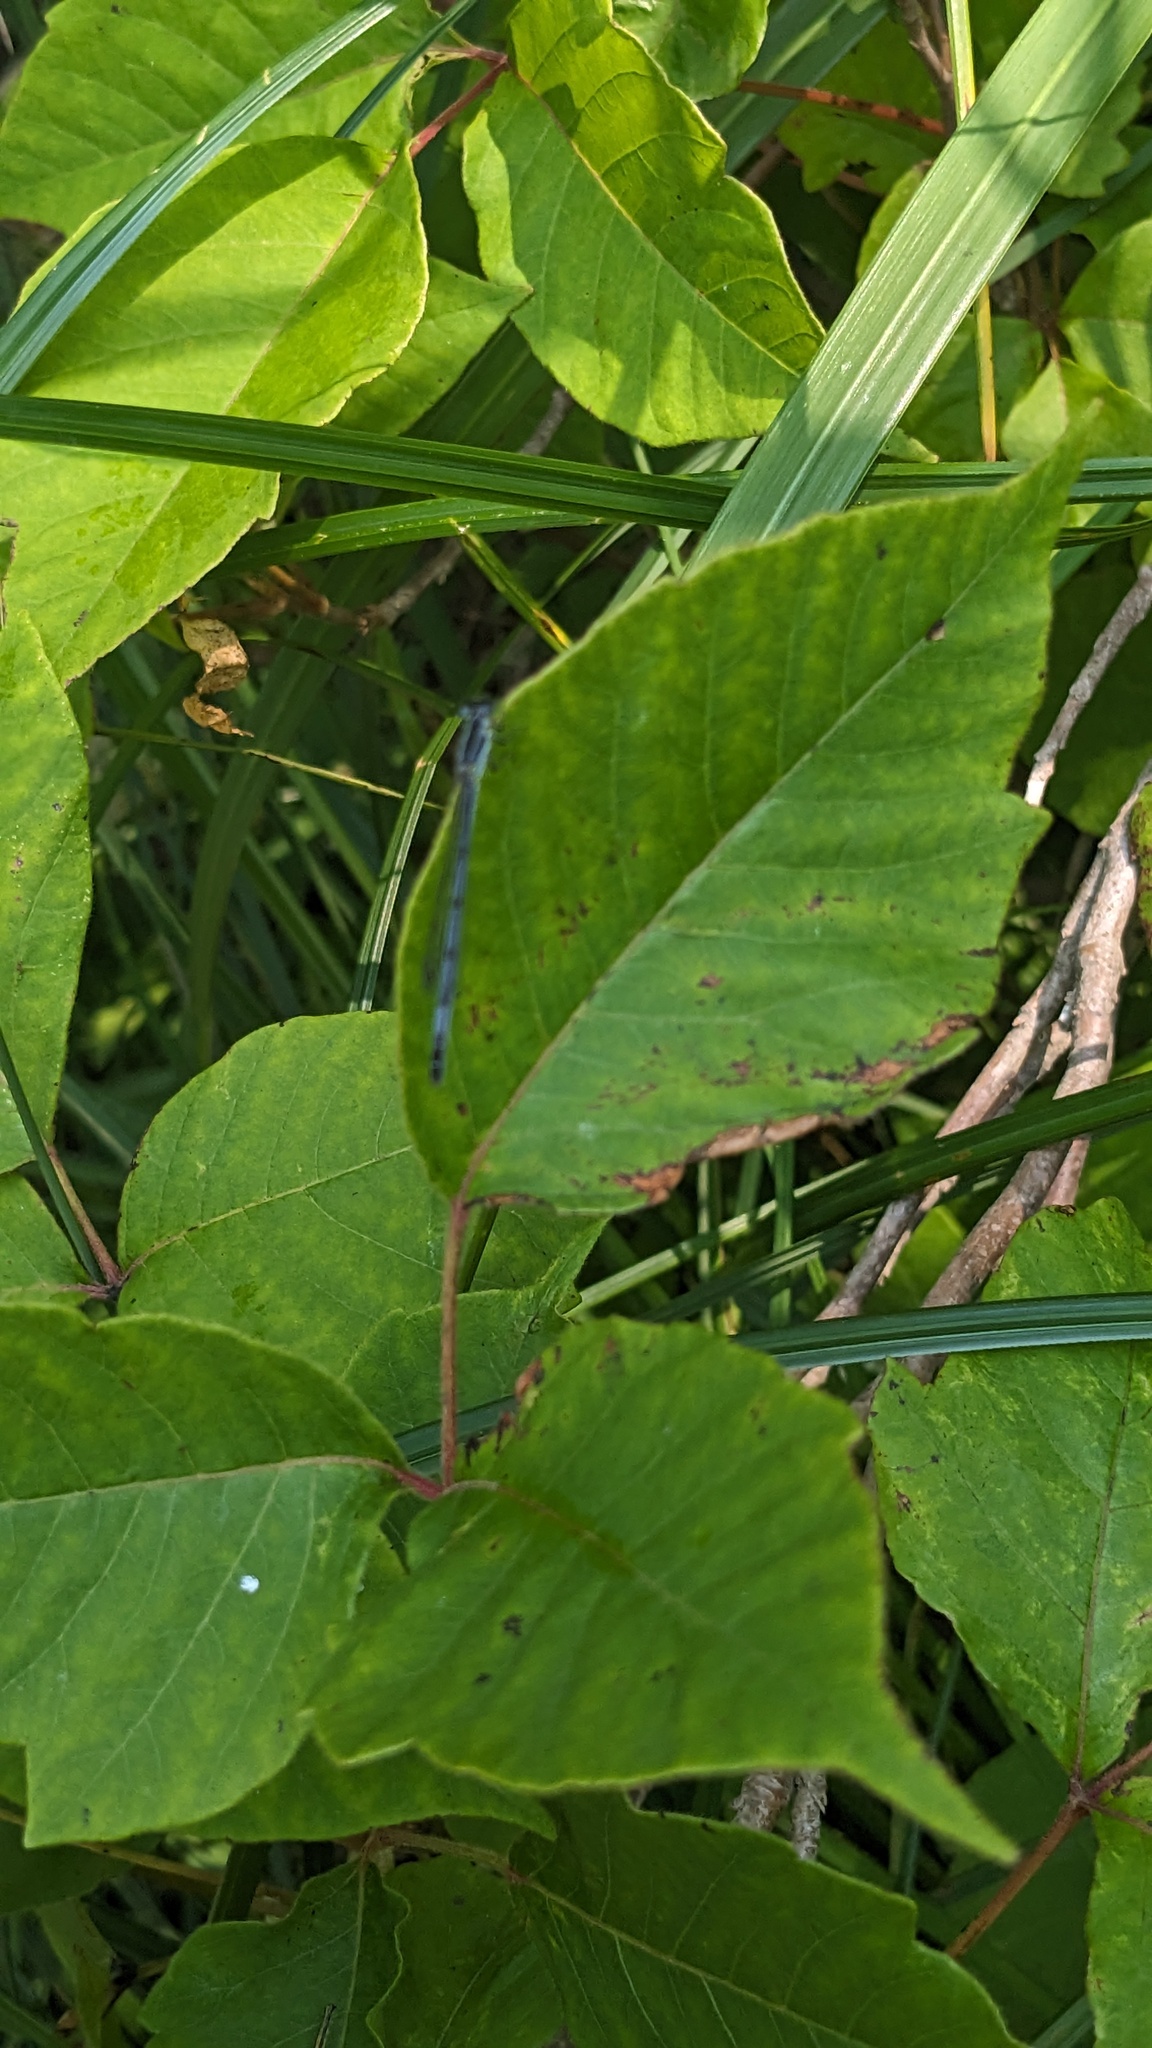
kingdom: Animalia
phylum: Arthropoda
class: Insecta
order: Odonata
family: Coenagrionidae
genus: Ischnura
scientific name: Ischnura verticalis
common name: Eastern forktail
